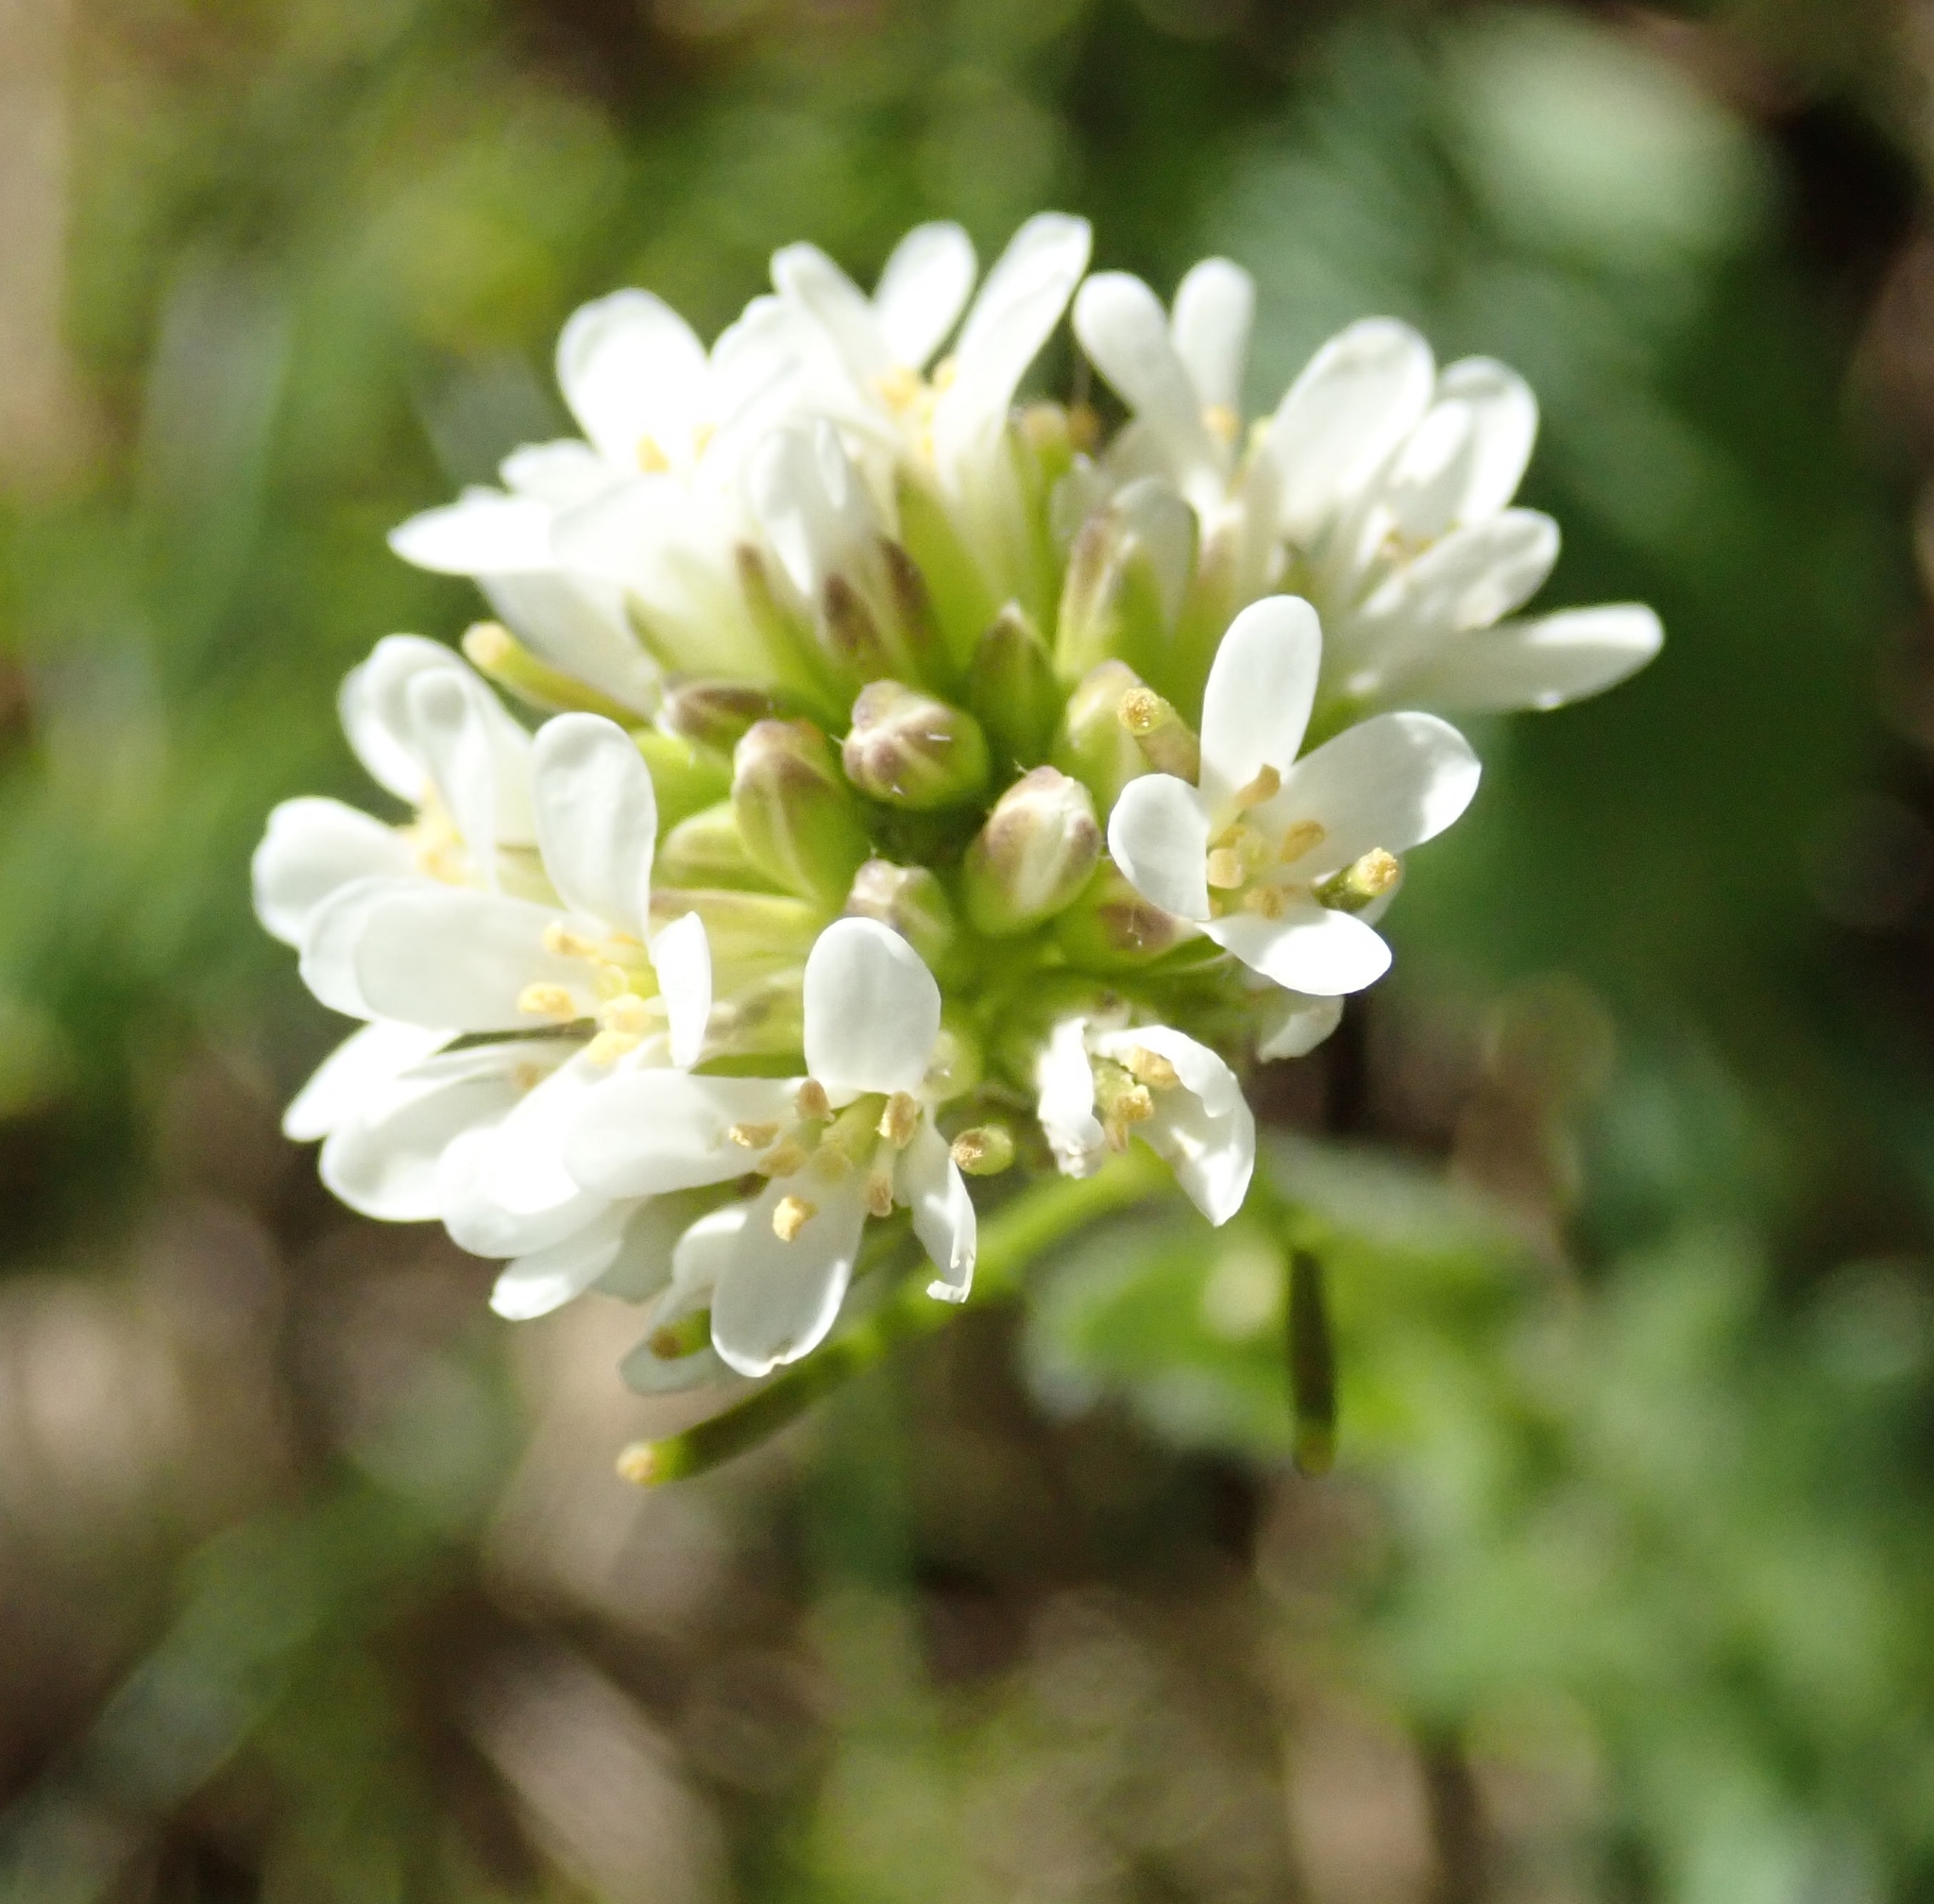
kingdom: Plantae
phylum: Tracheophyta
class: Magnoliopsida
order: Brassicales
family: Brassicaceae
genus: Arabis
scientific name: Arabis hirsuta
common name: Hairy rock-cress
